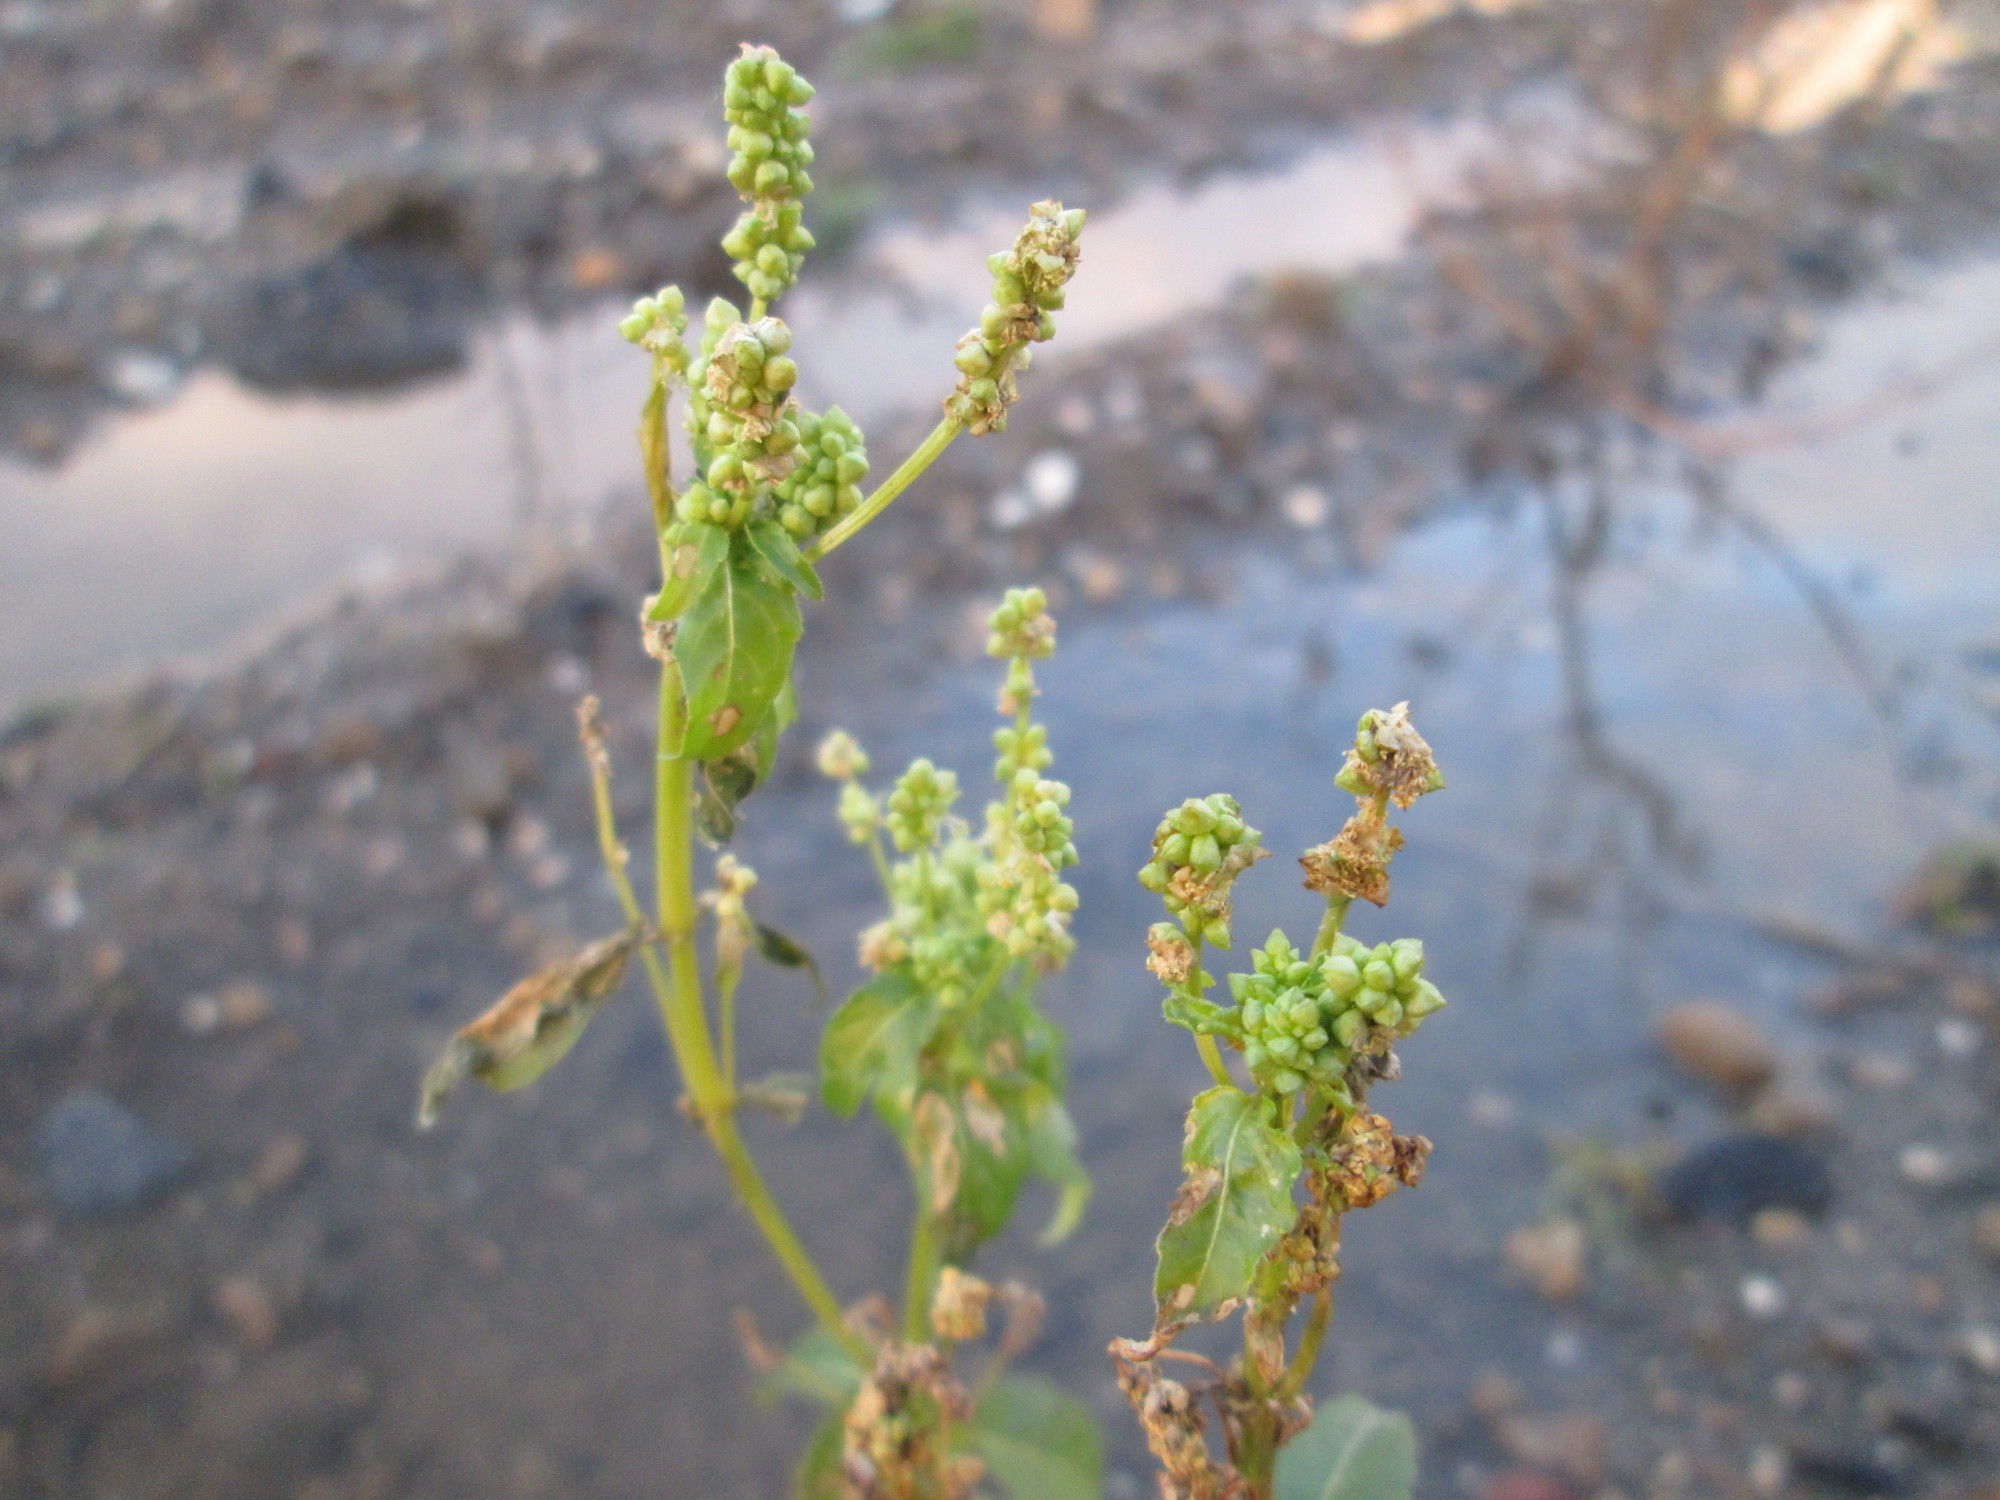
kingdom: Plantae
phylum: Tracheophyta
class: Magnoliopsida
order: Malpighiales
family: Euphorbiaceae
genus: Mercurialis
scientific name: Mercurialis annua
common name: Annual mercury
